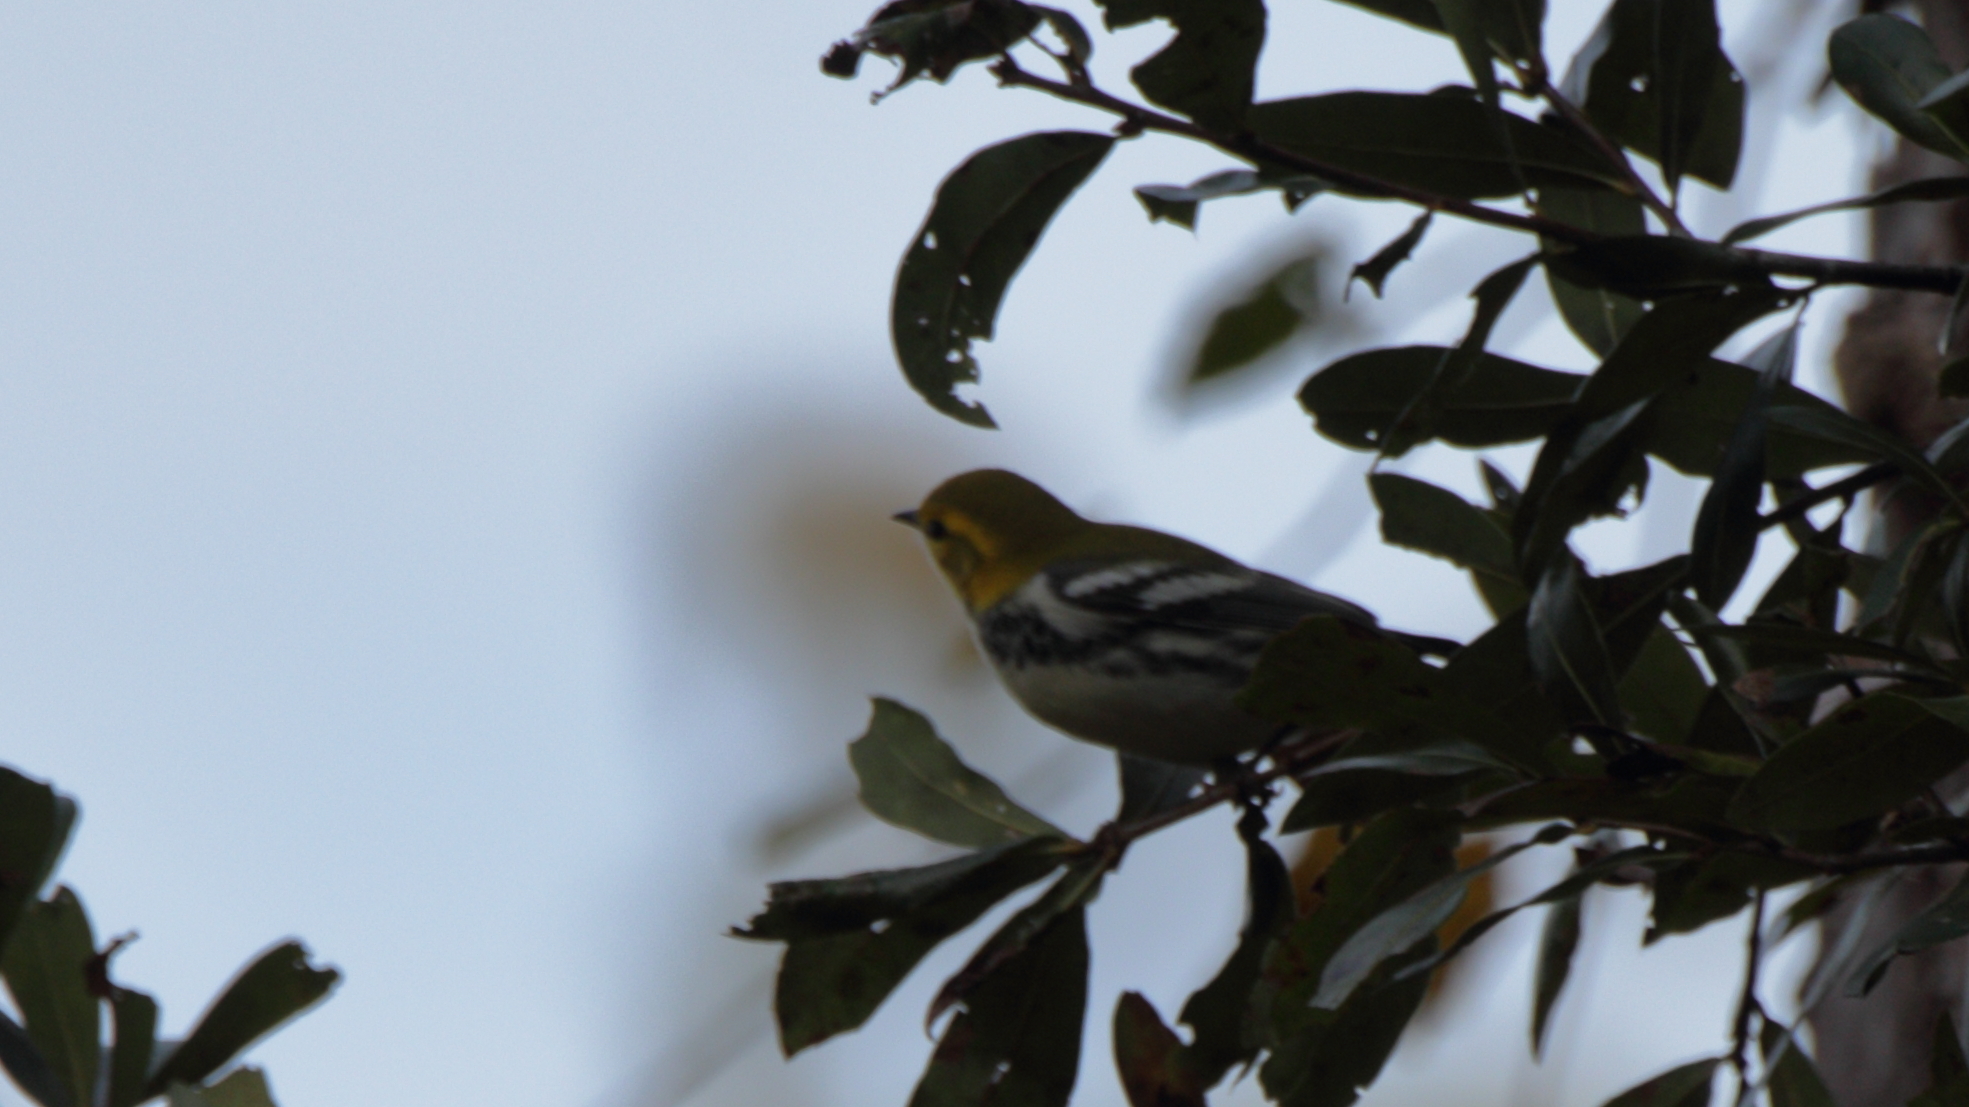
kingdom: Animalia
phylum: Chordata
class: Aves
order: Passeriformes
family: Parulidae
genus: Setophaga
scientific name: Setophaga virens
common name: Black-throated green warbler
